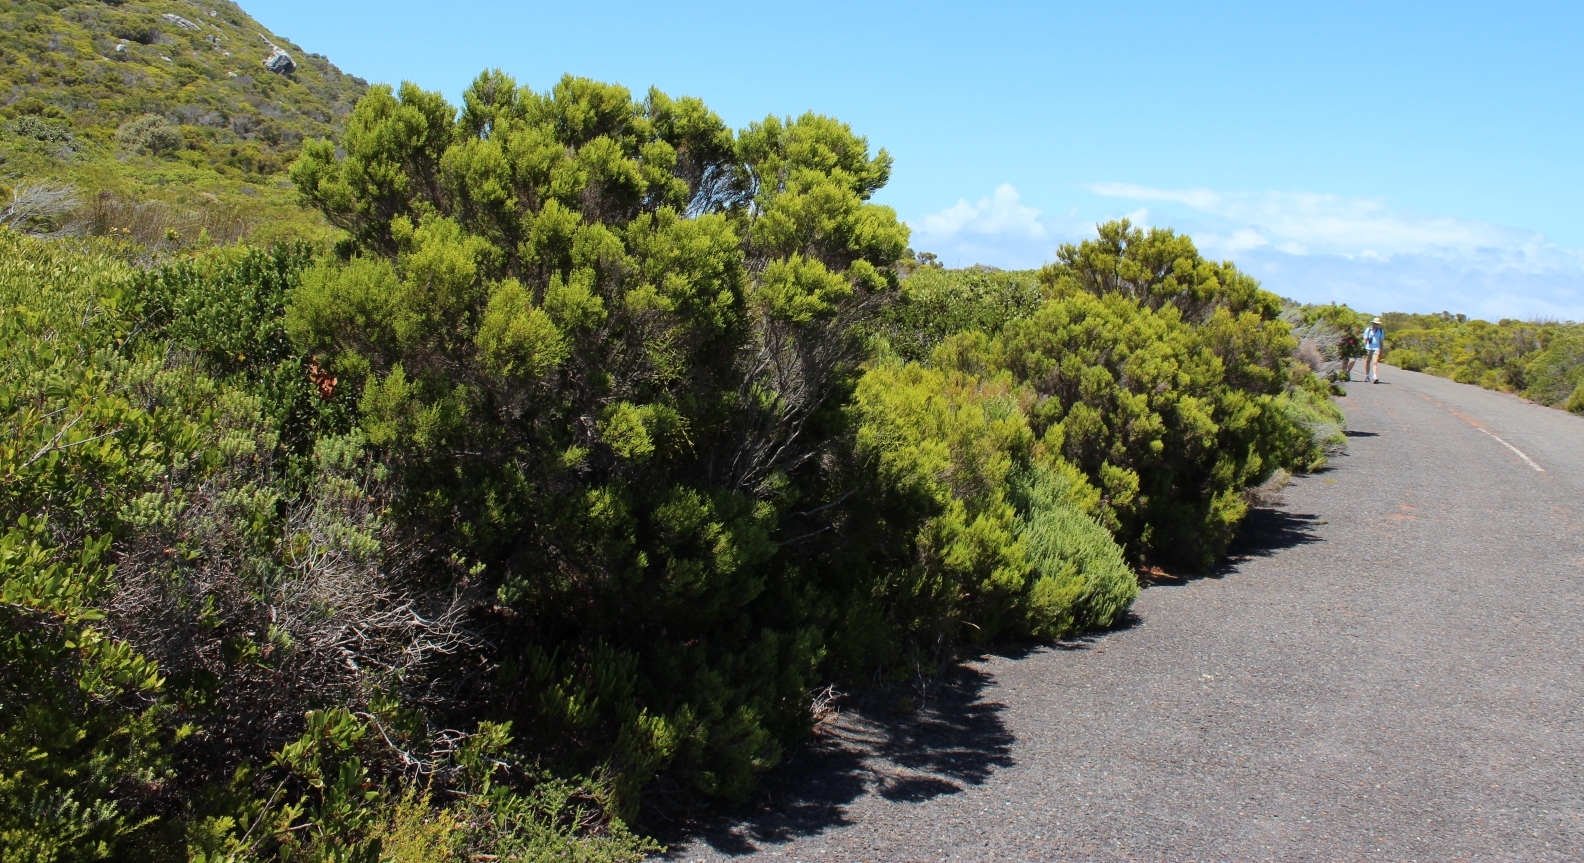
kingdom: Plantae
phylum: Tracheophyta
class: Magnoliopsida
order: Ericales
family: Ericaceae
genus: Erica
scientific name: Erica tristis
